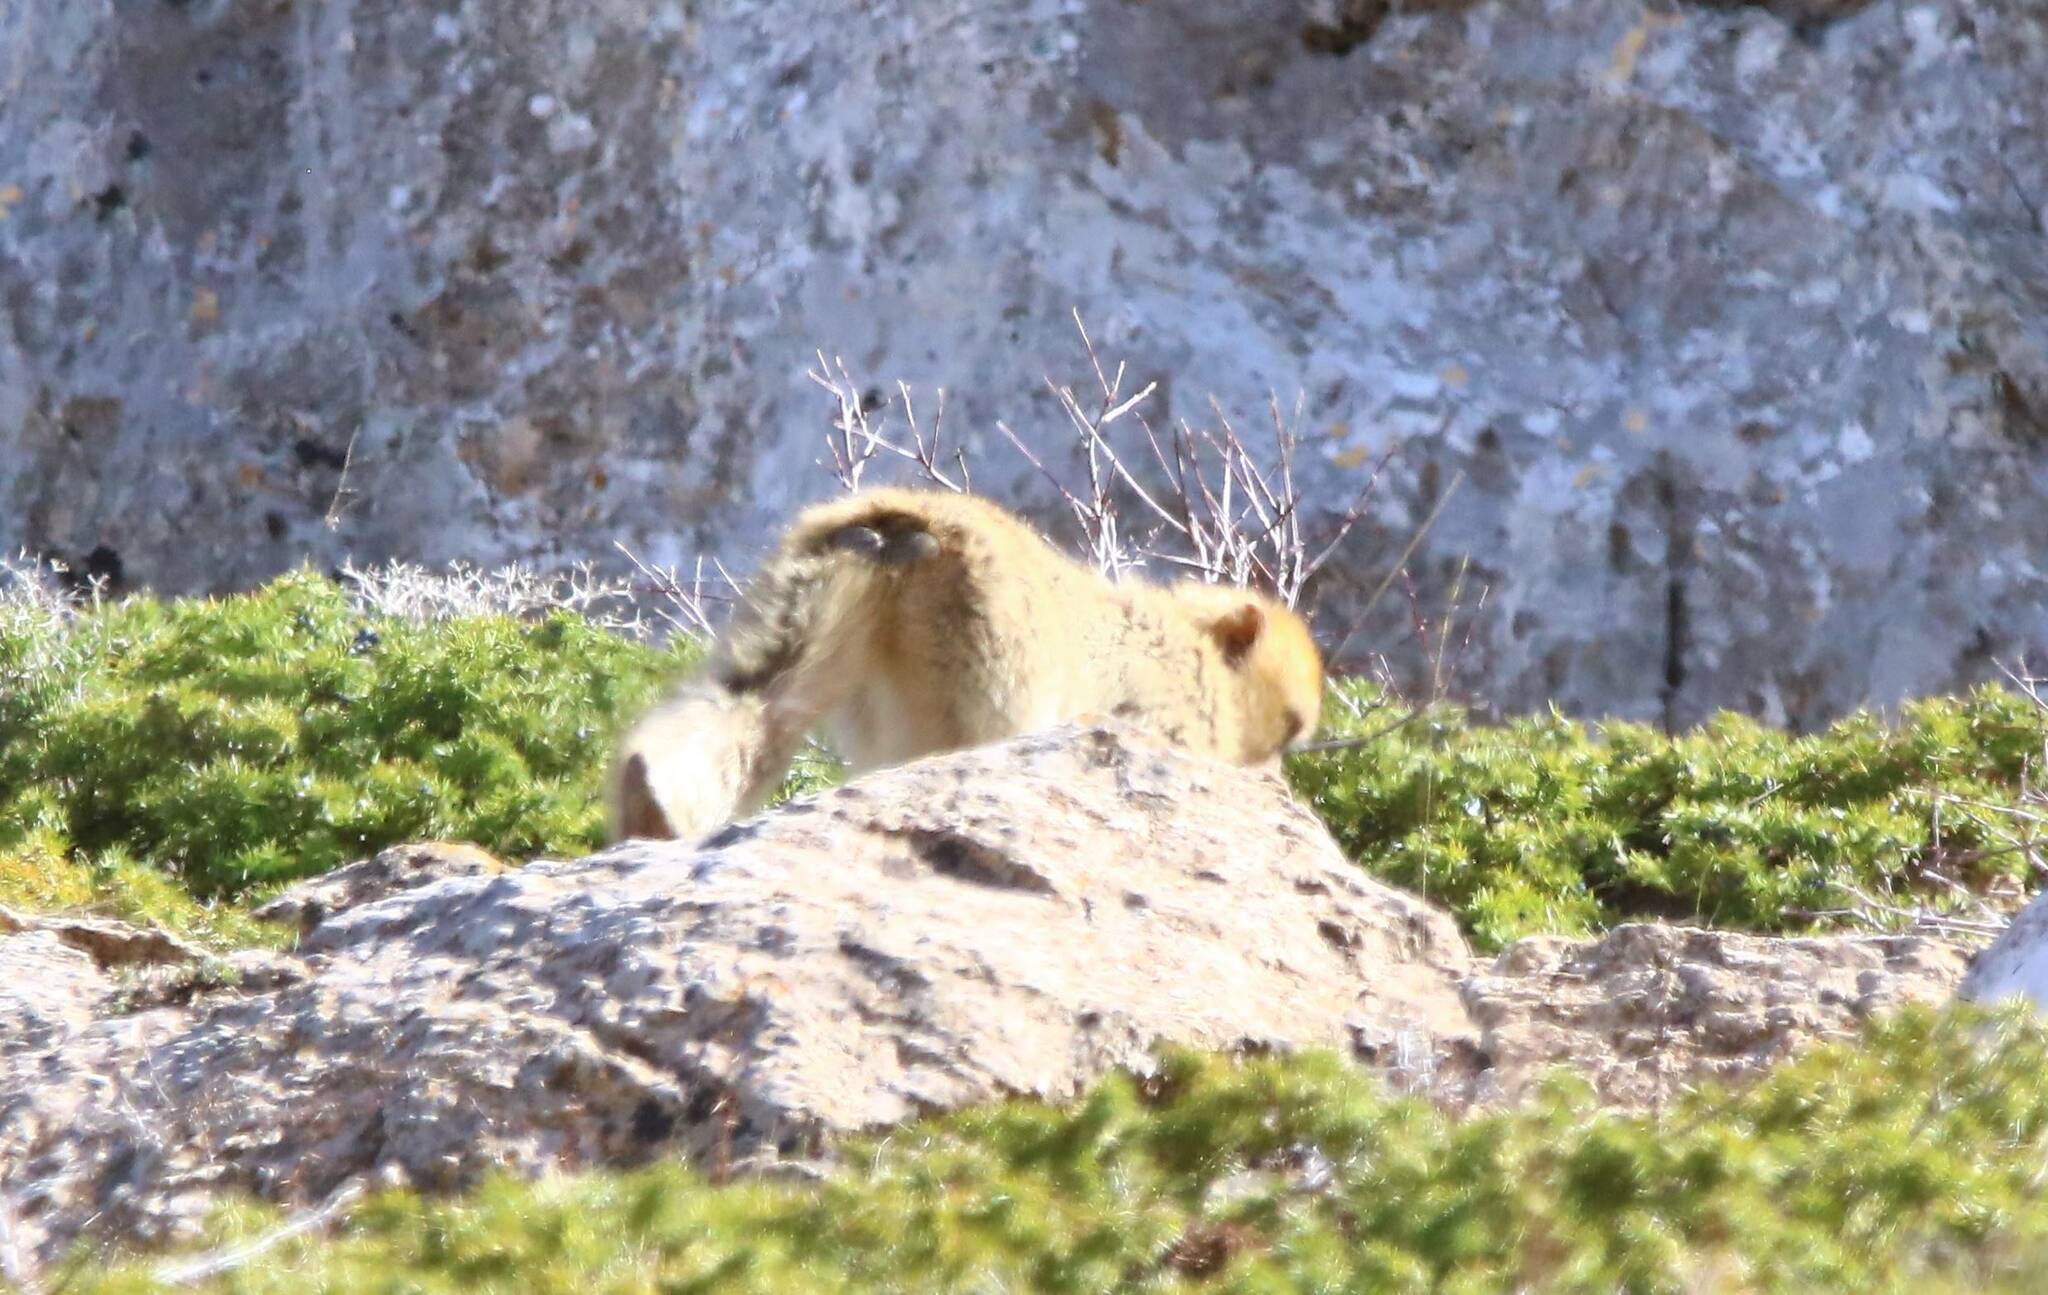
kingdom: Animalia
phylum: Chordata
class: Mammalia
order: Primates
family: Cercopithecidae
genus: Macaca
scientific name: Macaca sylvanus
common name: Barbary macaque
